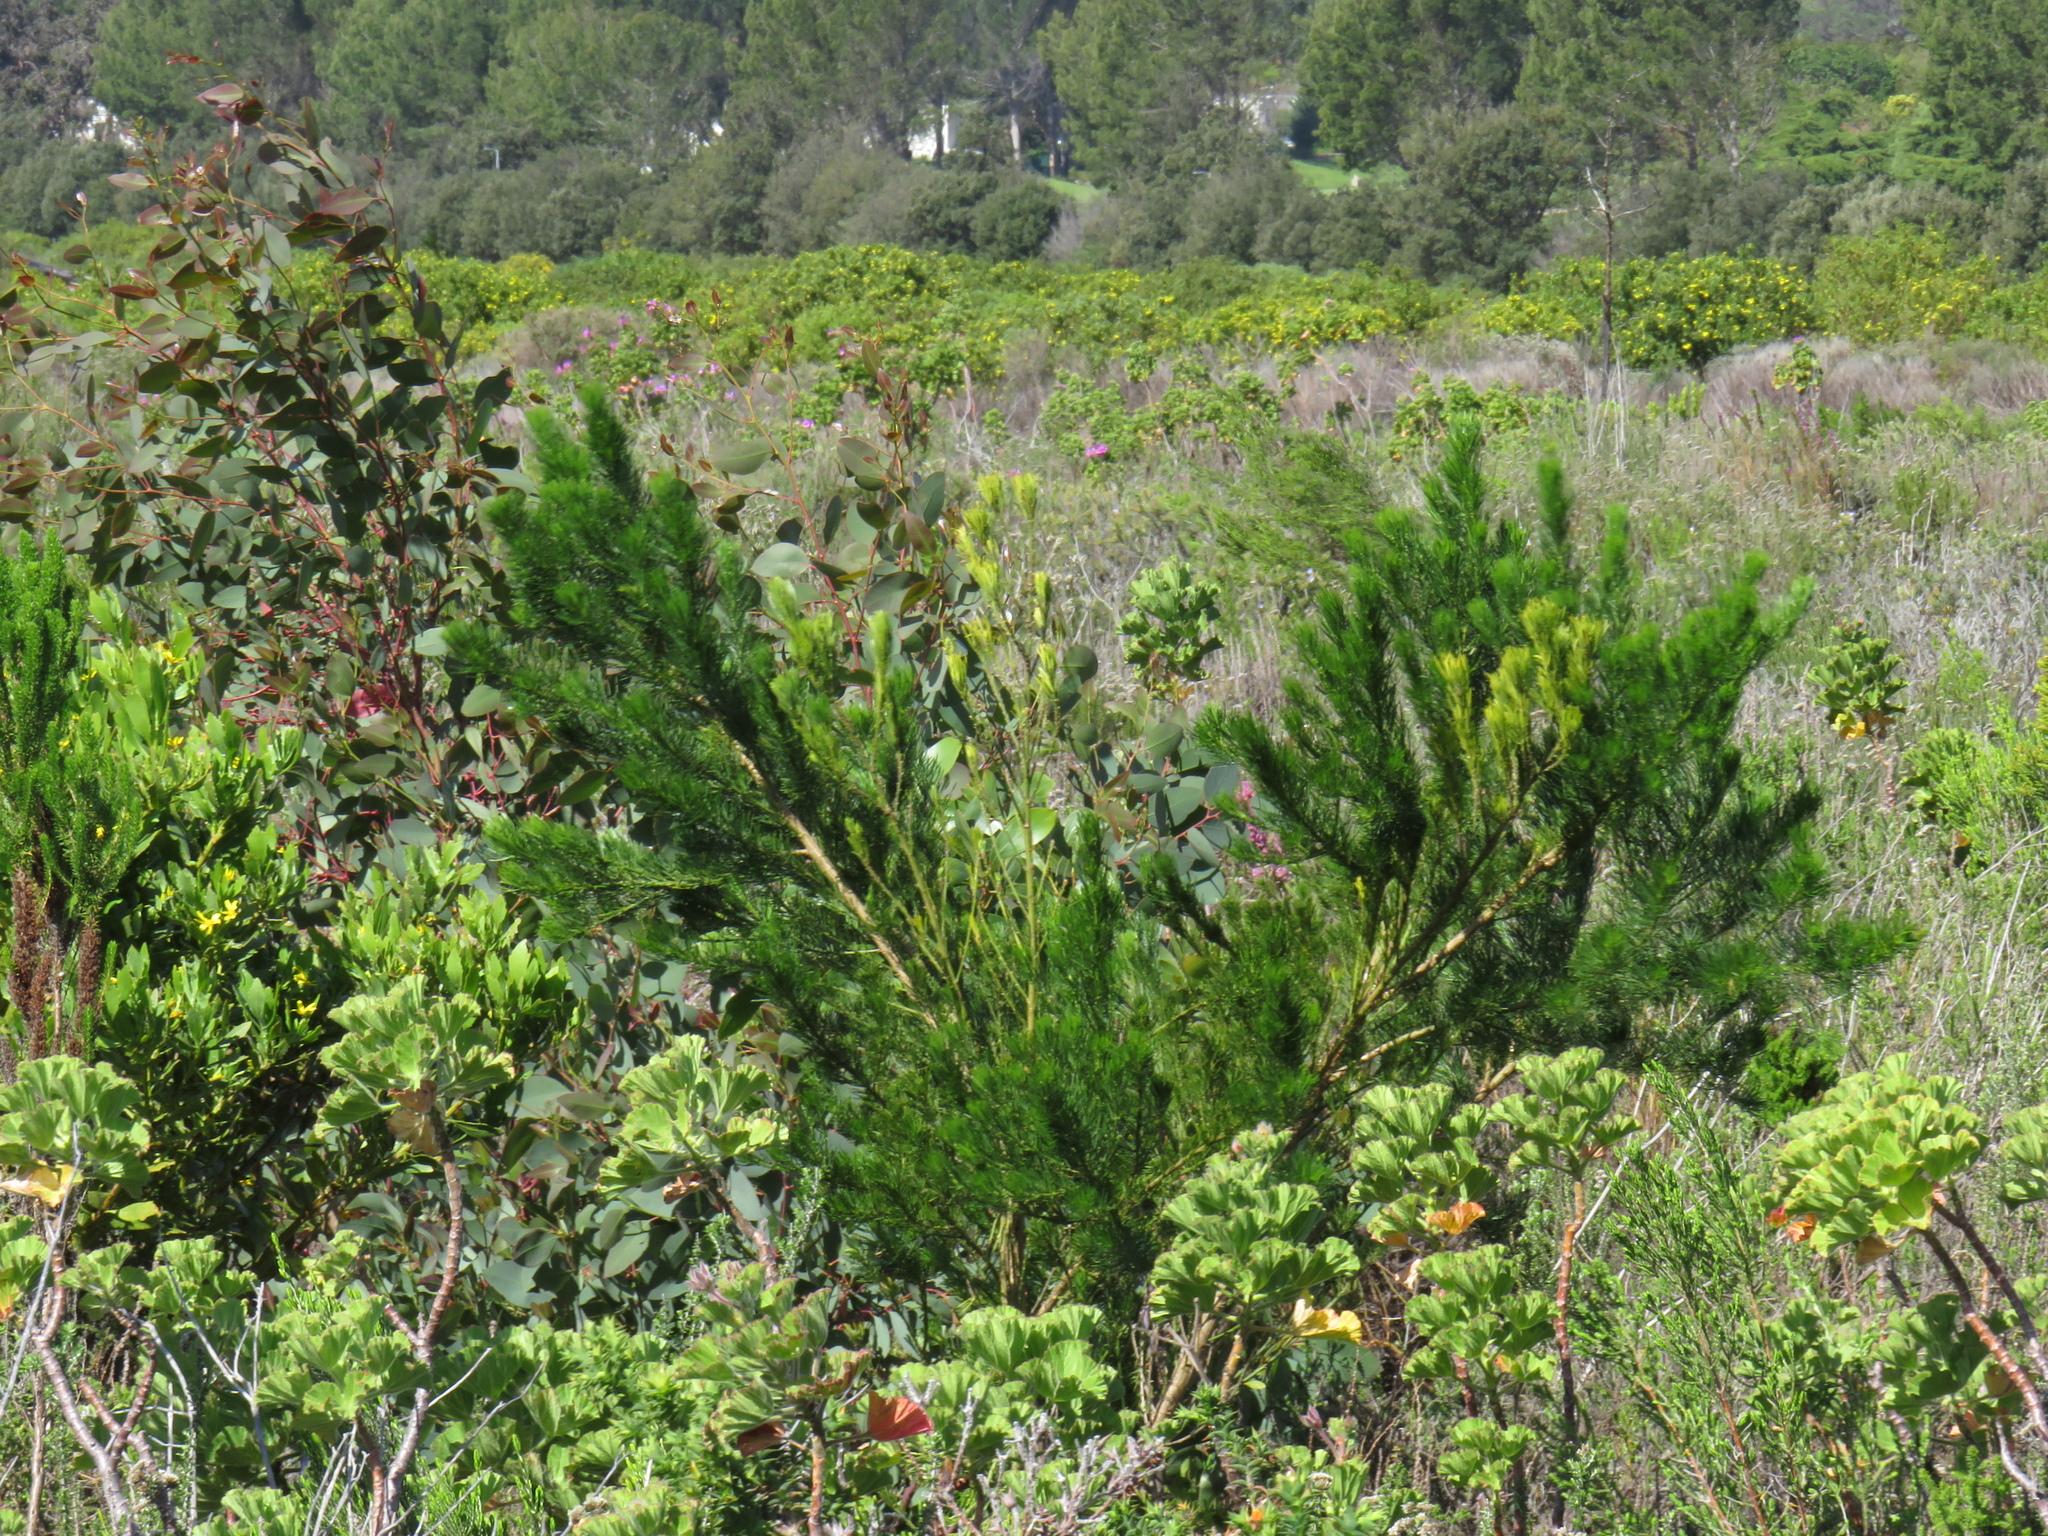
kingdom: Plantae
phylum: Tracheophyta
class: Magnoliopsida
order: Fabales
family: Fabaceae
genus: Psoralea
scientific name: Psoralea pinnata
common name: African scurfpea
